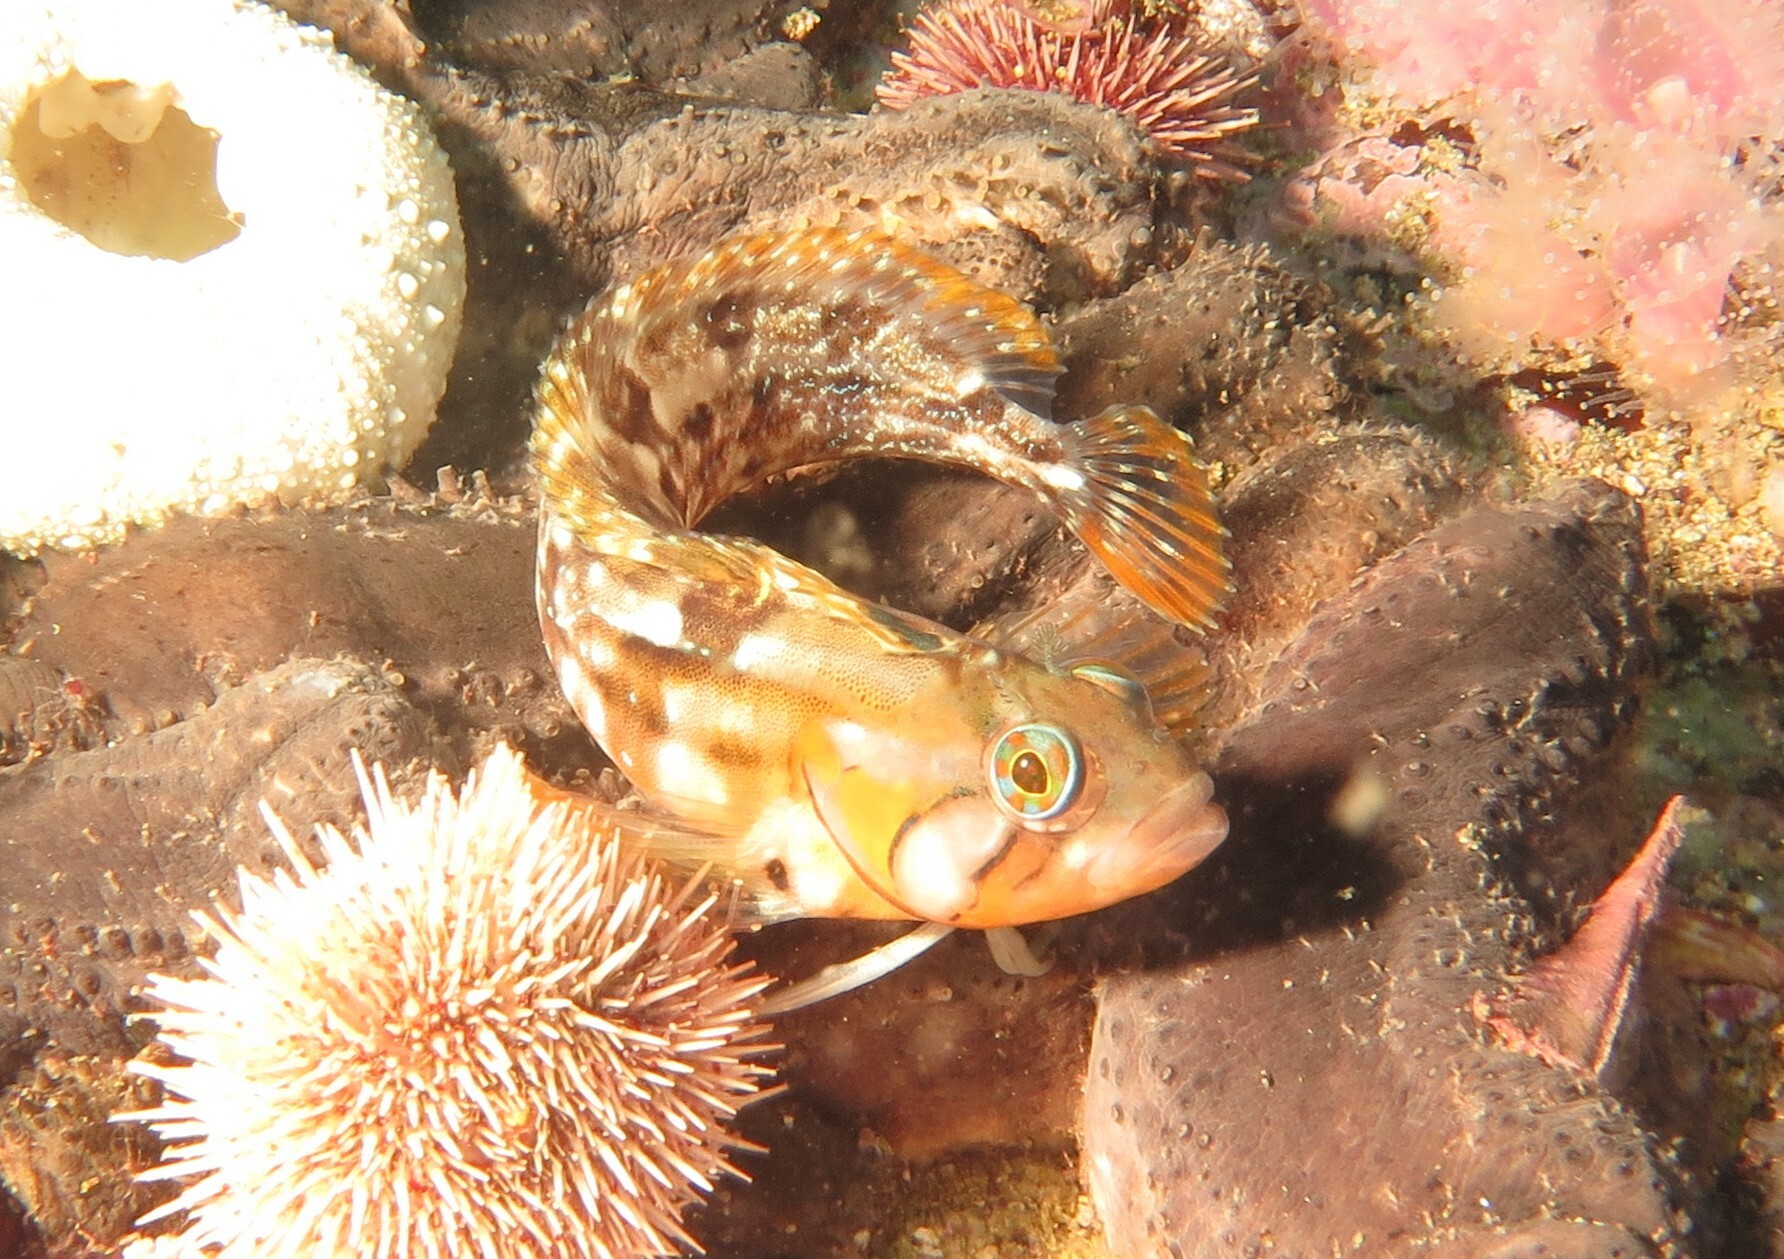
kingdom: Animalia
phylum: Chordata
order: Perciformes
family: Clinidae
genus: Clinus
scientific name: Clinus venustris
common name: Speckled klipfish
